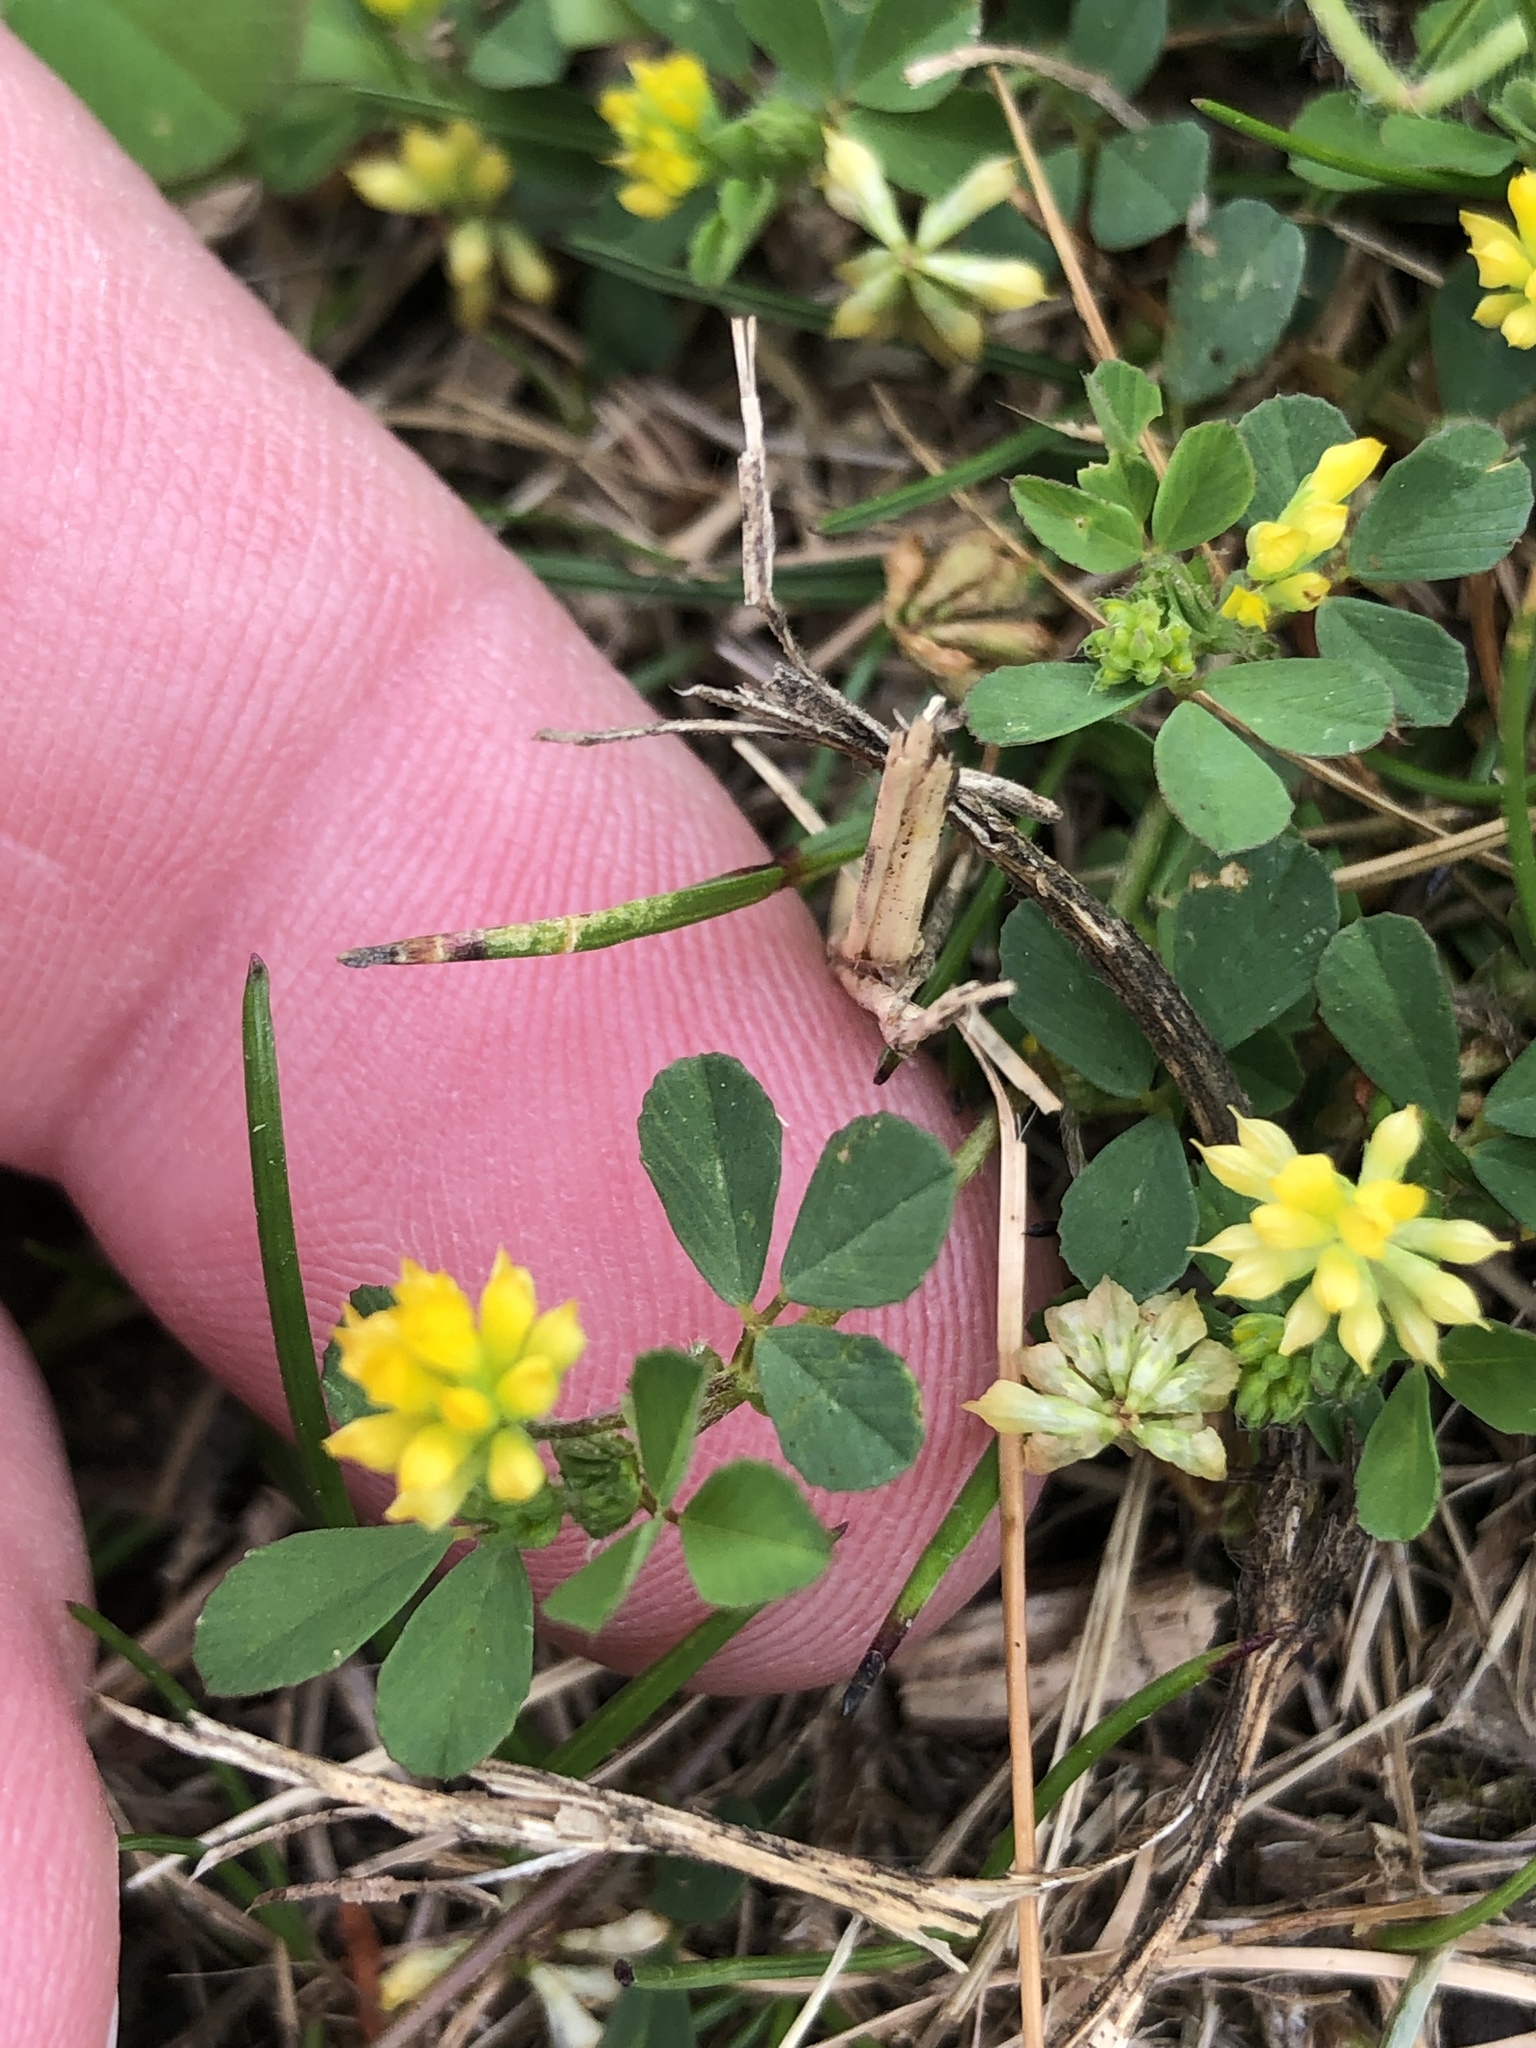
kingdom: Plantae
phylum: Tracheophyta
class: Magnoliopsida
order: Fabales
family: Fabaceae
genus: Trifolium
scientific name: Trifolium dubium
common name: Suckling clover
